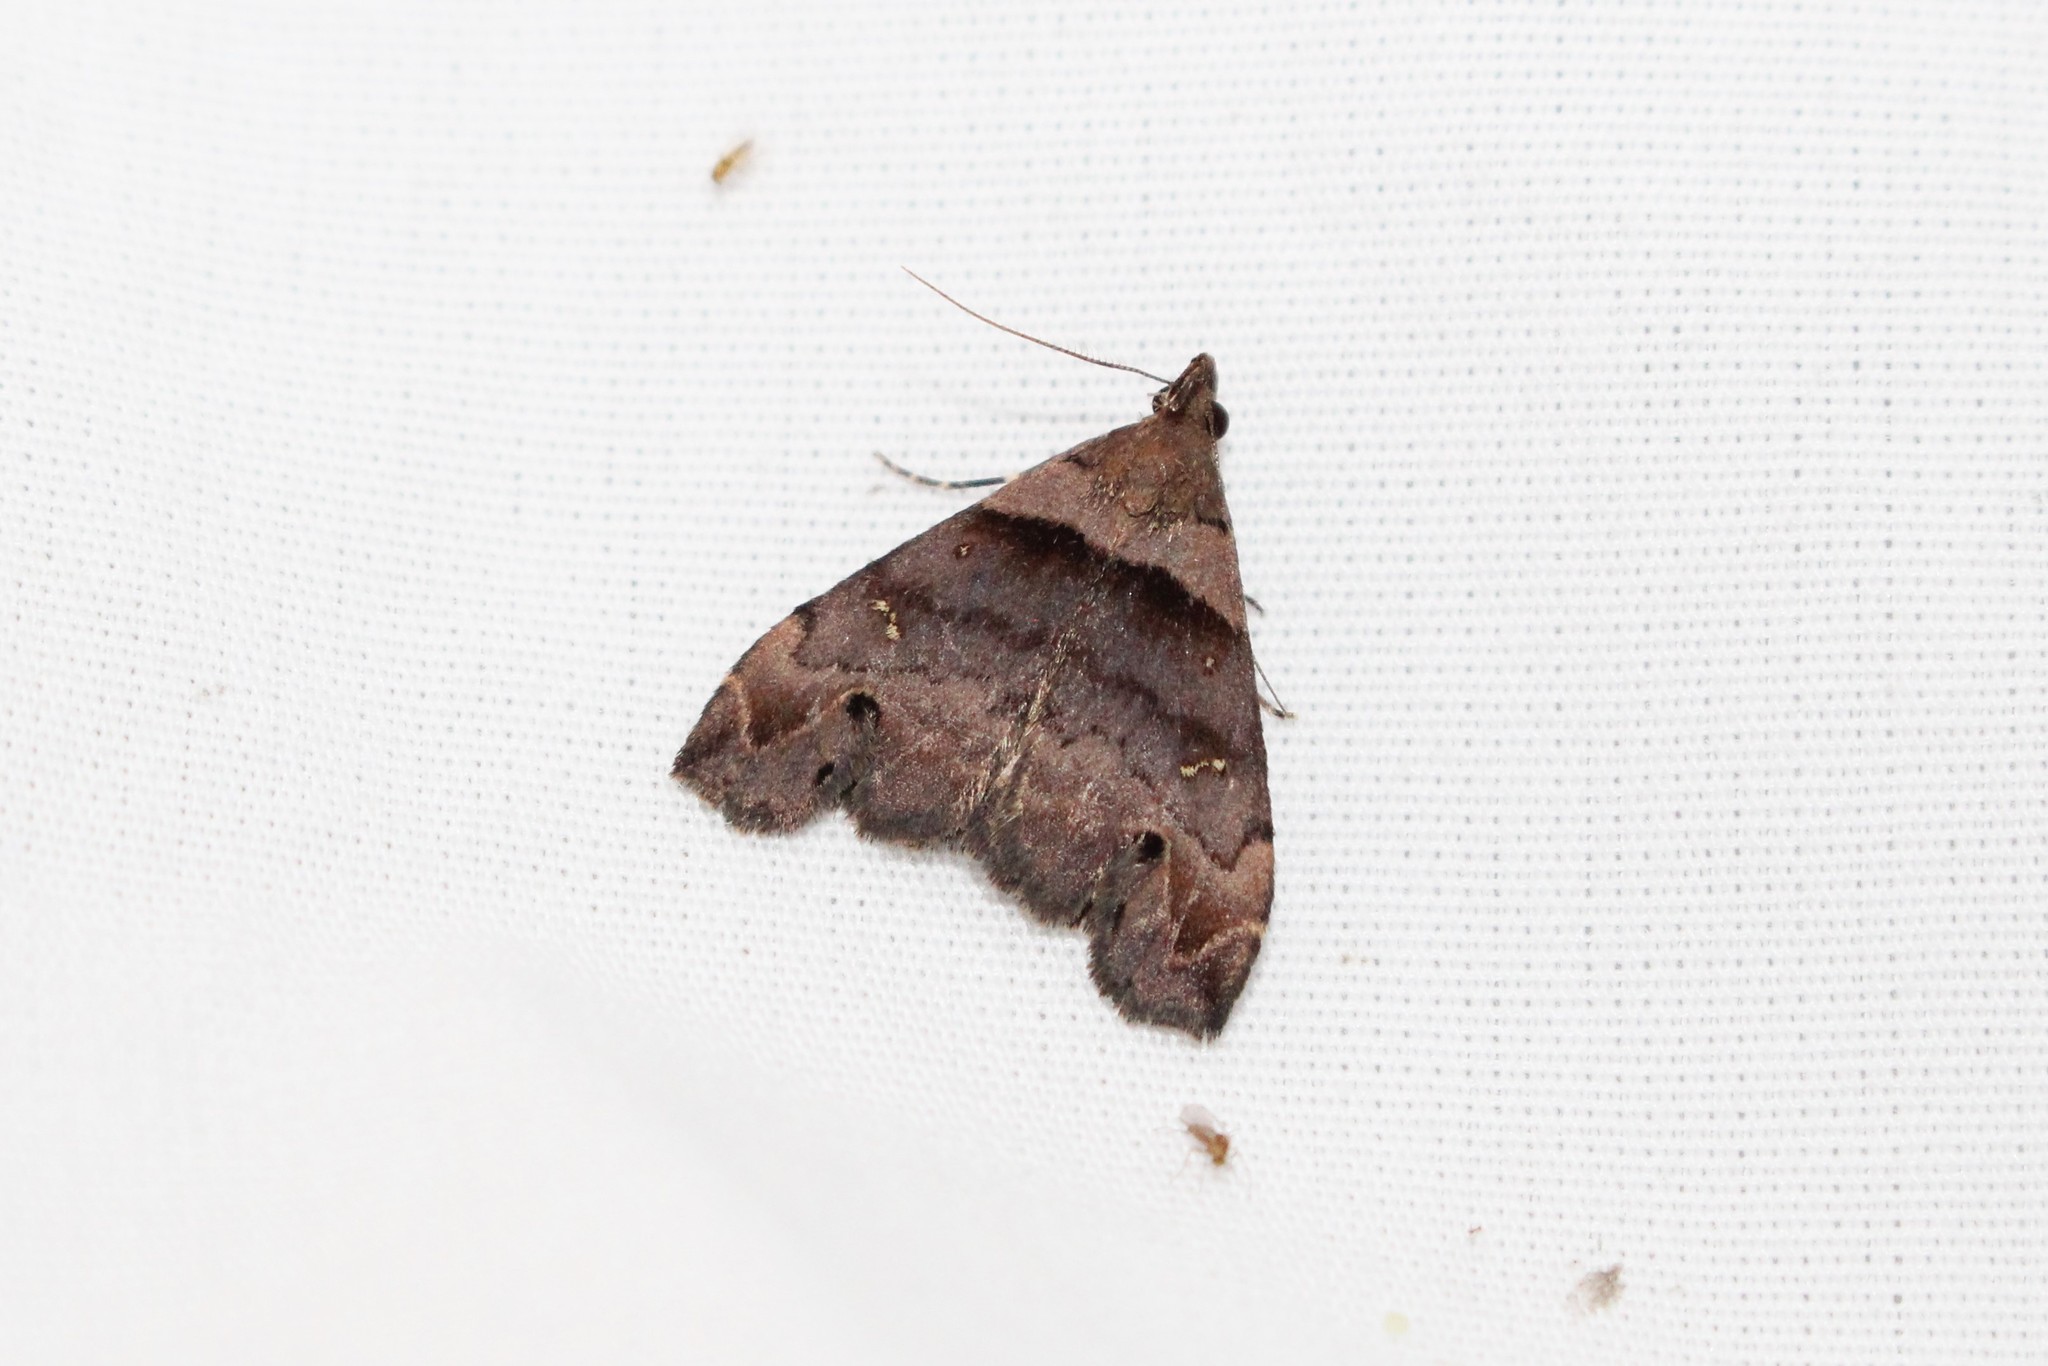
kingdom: Animalia
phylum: Arthropoda
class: Insecta
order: Lepidoptera
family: Erebidae
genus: Lascoria
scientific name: Lascoria ambigualis
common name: Ambiguous moth
